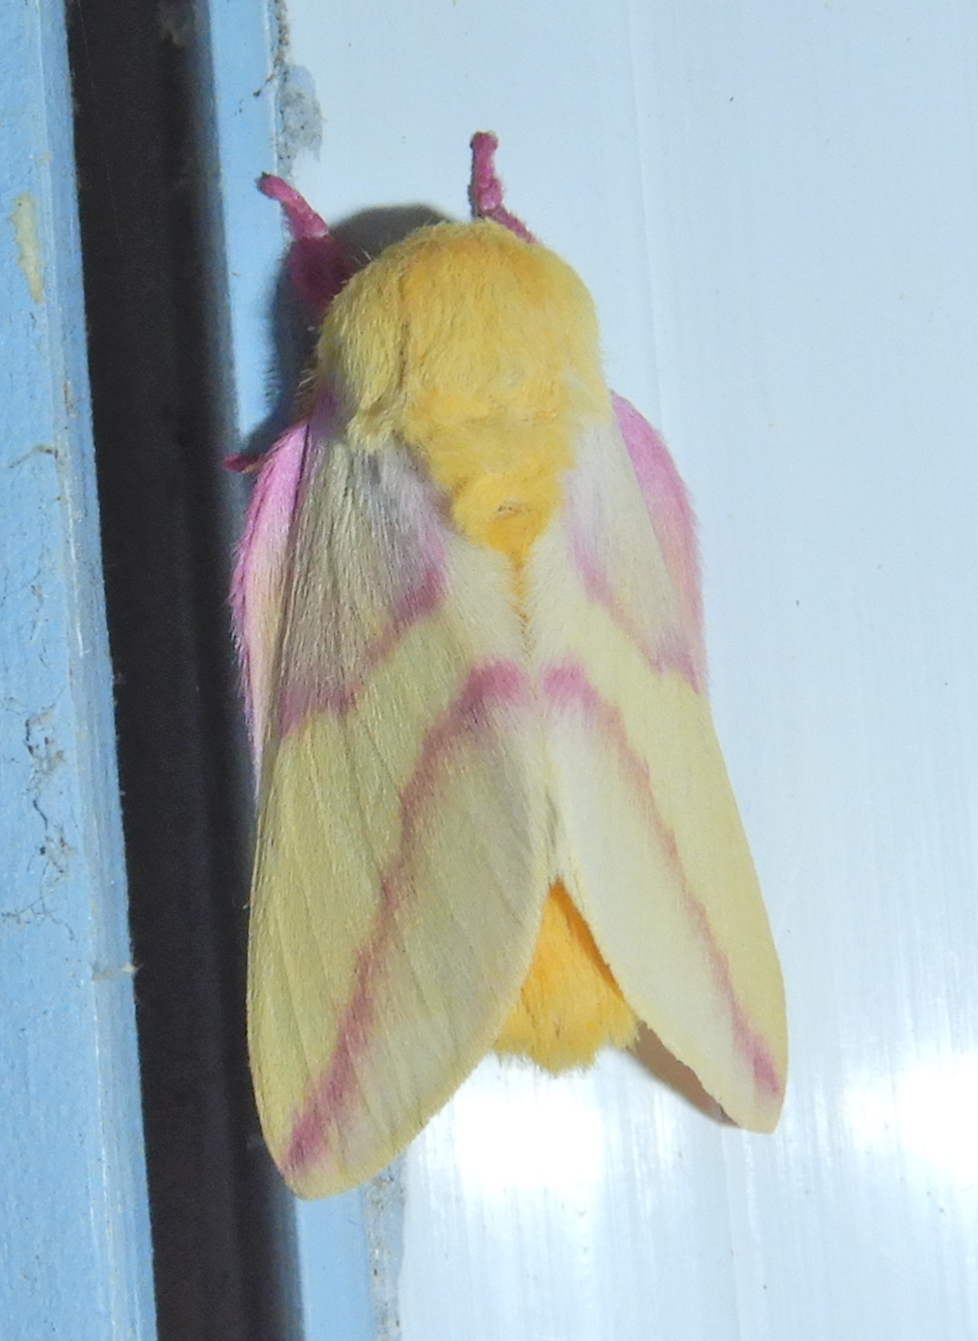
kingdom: Animalia
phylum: Arthropoda
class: Insecta
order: Lepidoptera
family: Saturniidae
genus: Dryocampa
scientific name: Dryocampa rubicunda
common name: Rosy maple moth
